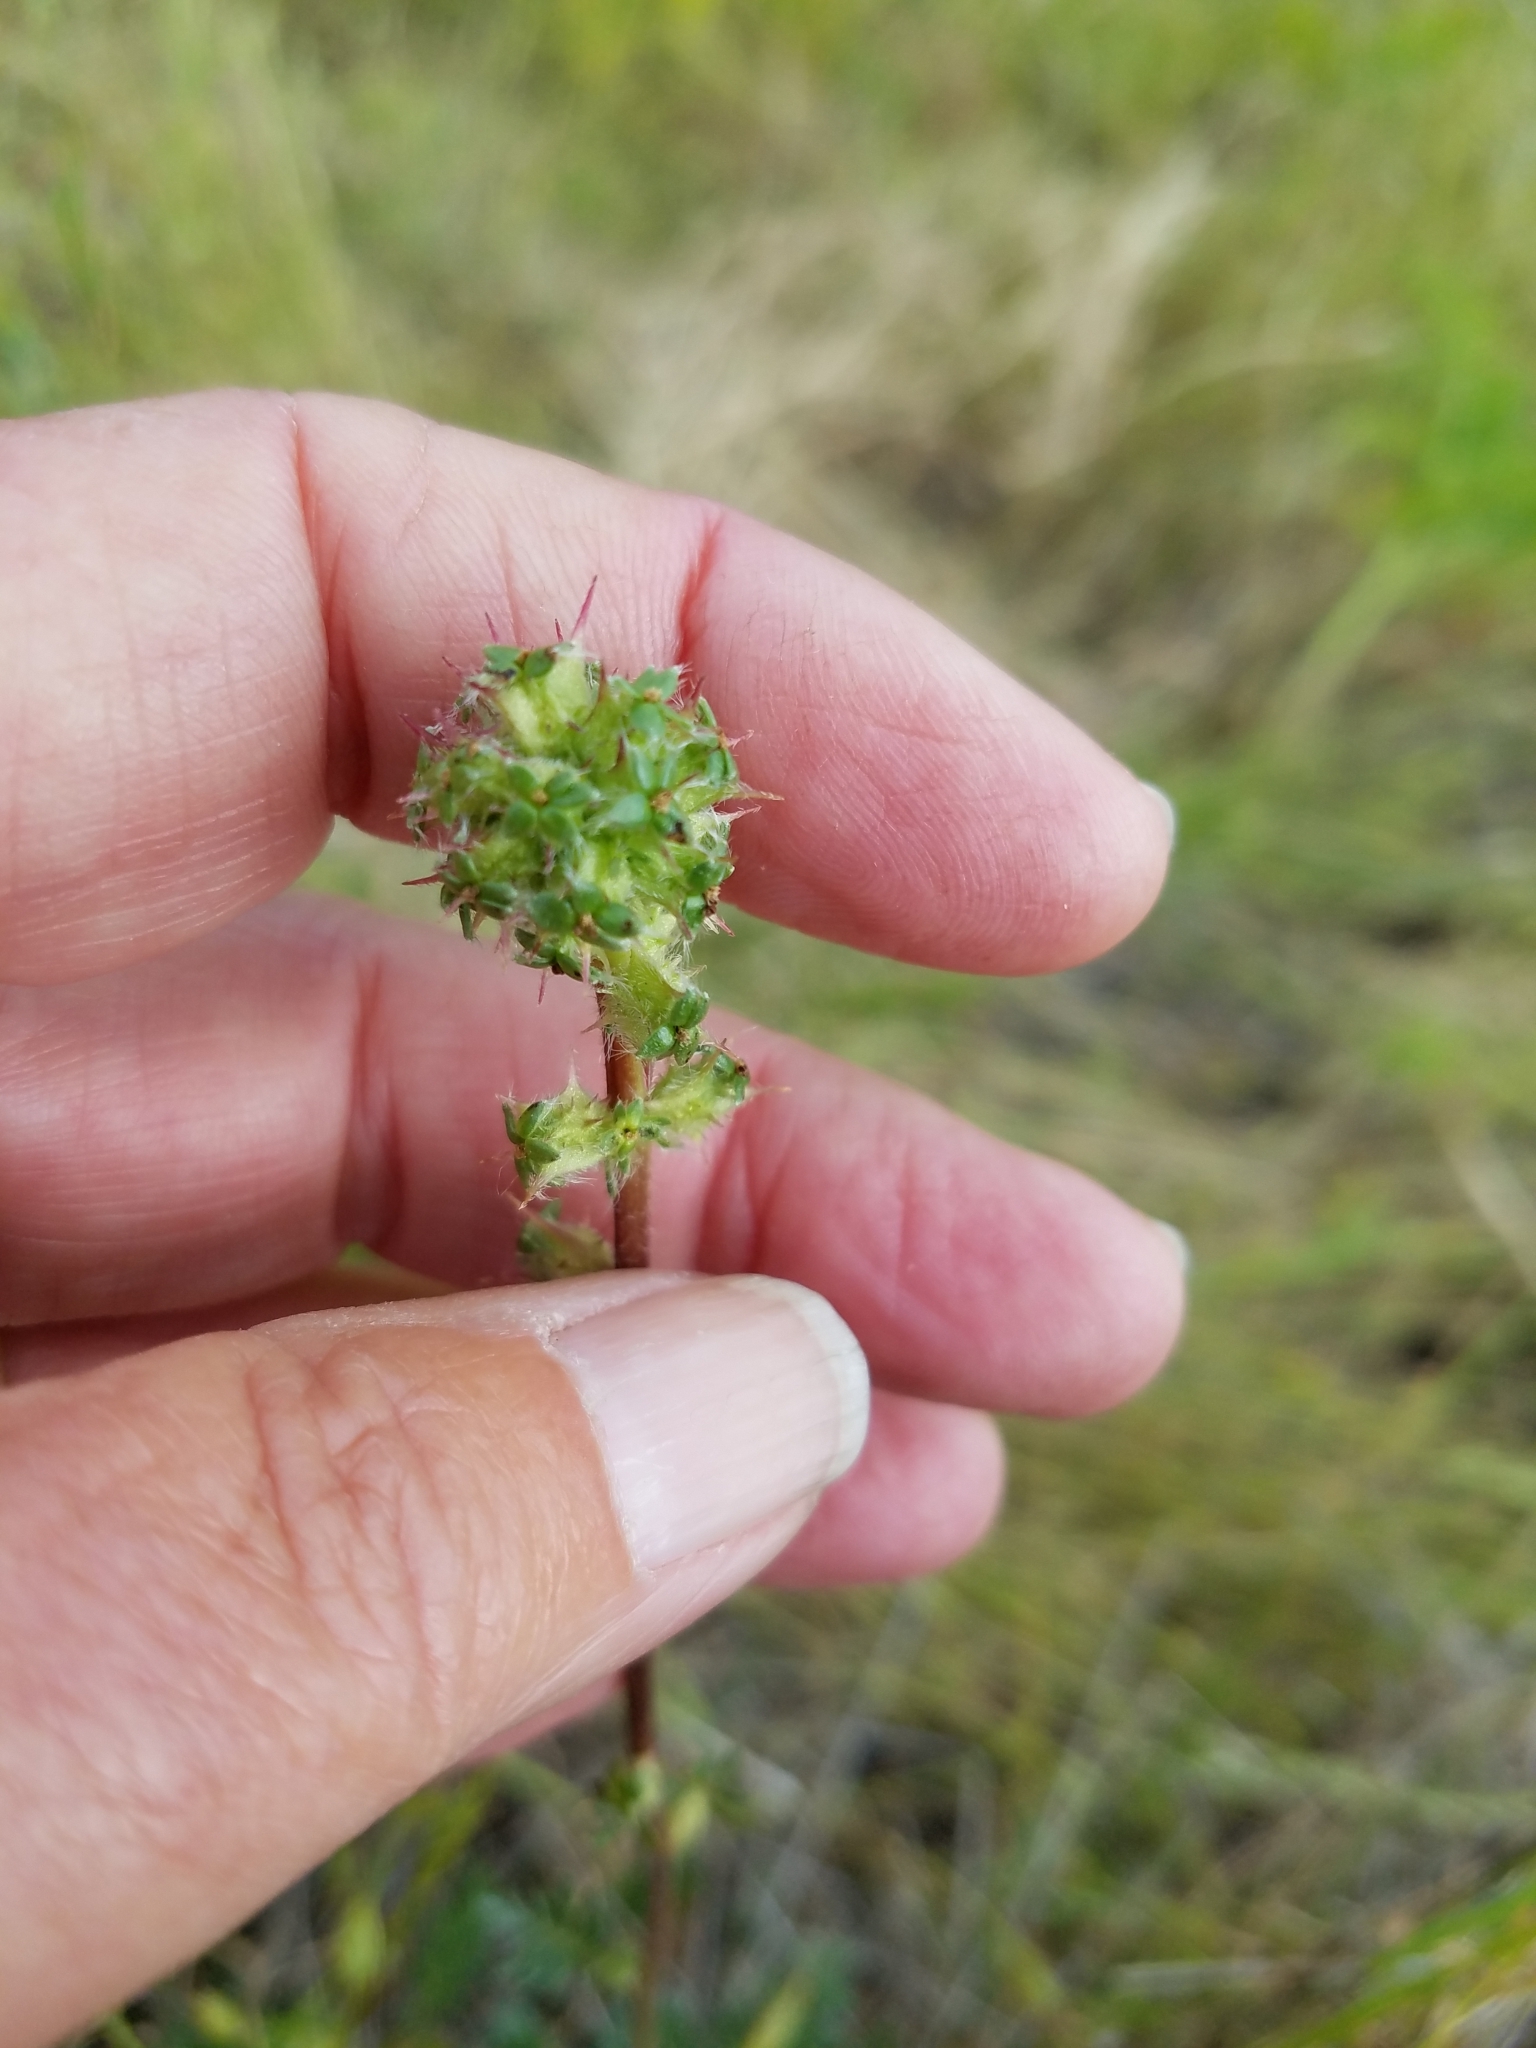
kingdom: Plantae
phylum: Tracheophyta
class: Magnoliopsida
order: Rosales
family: Rosaceae
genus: Acaena
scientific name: Acaena pinnatifida
